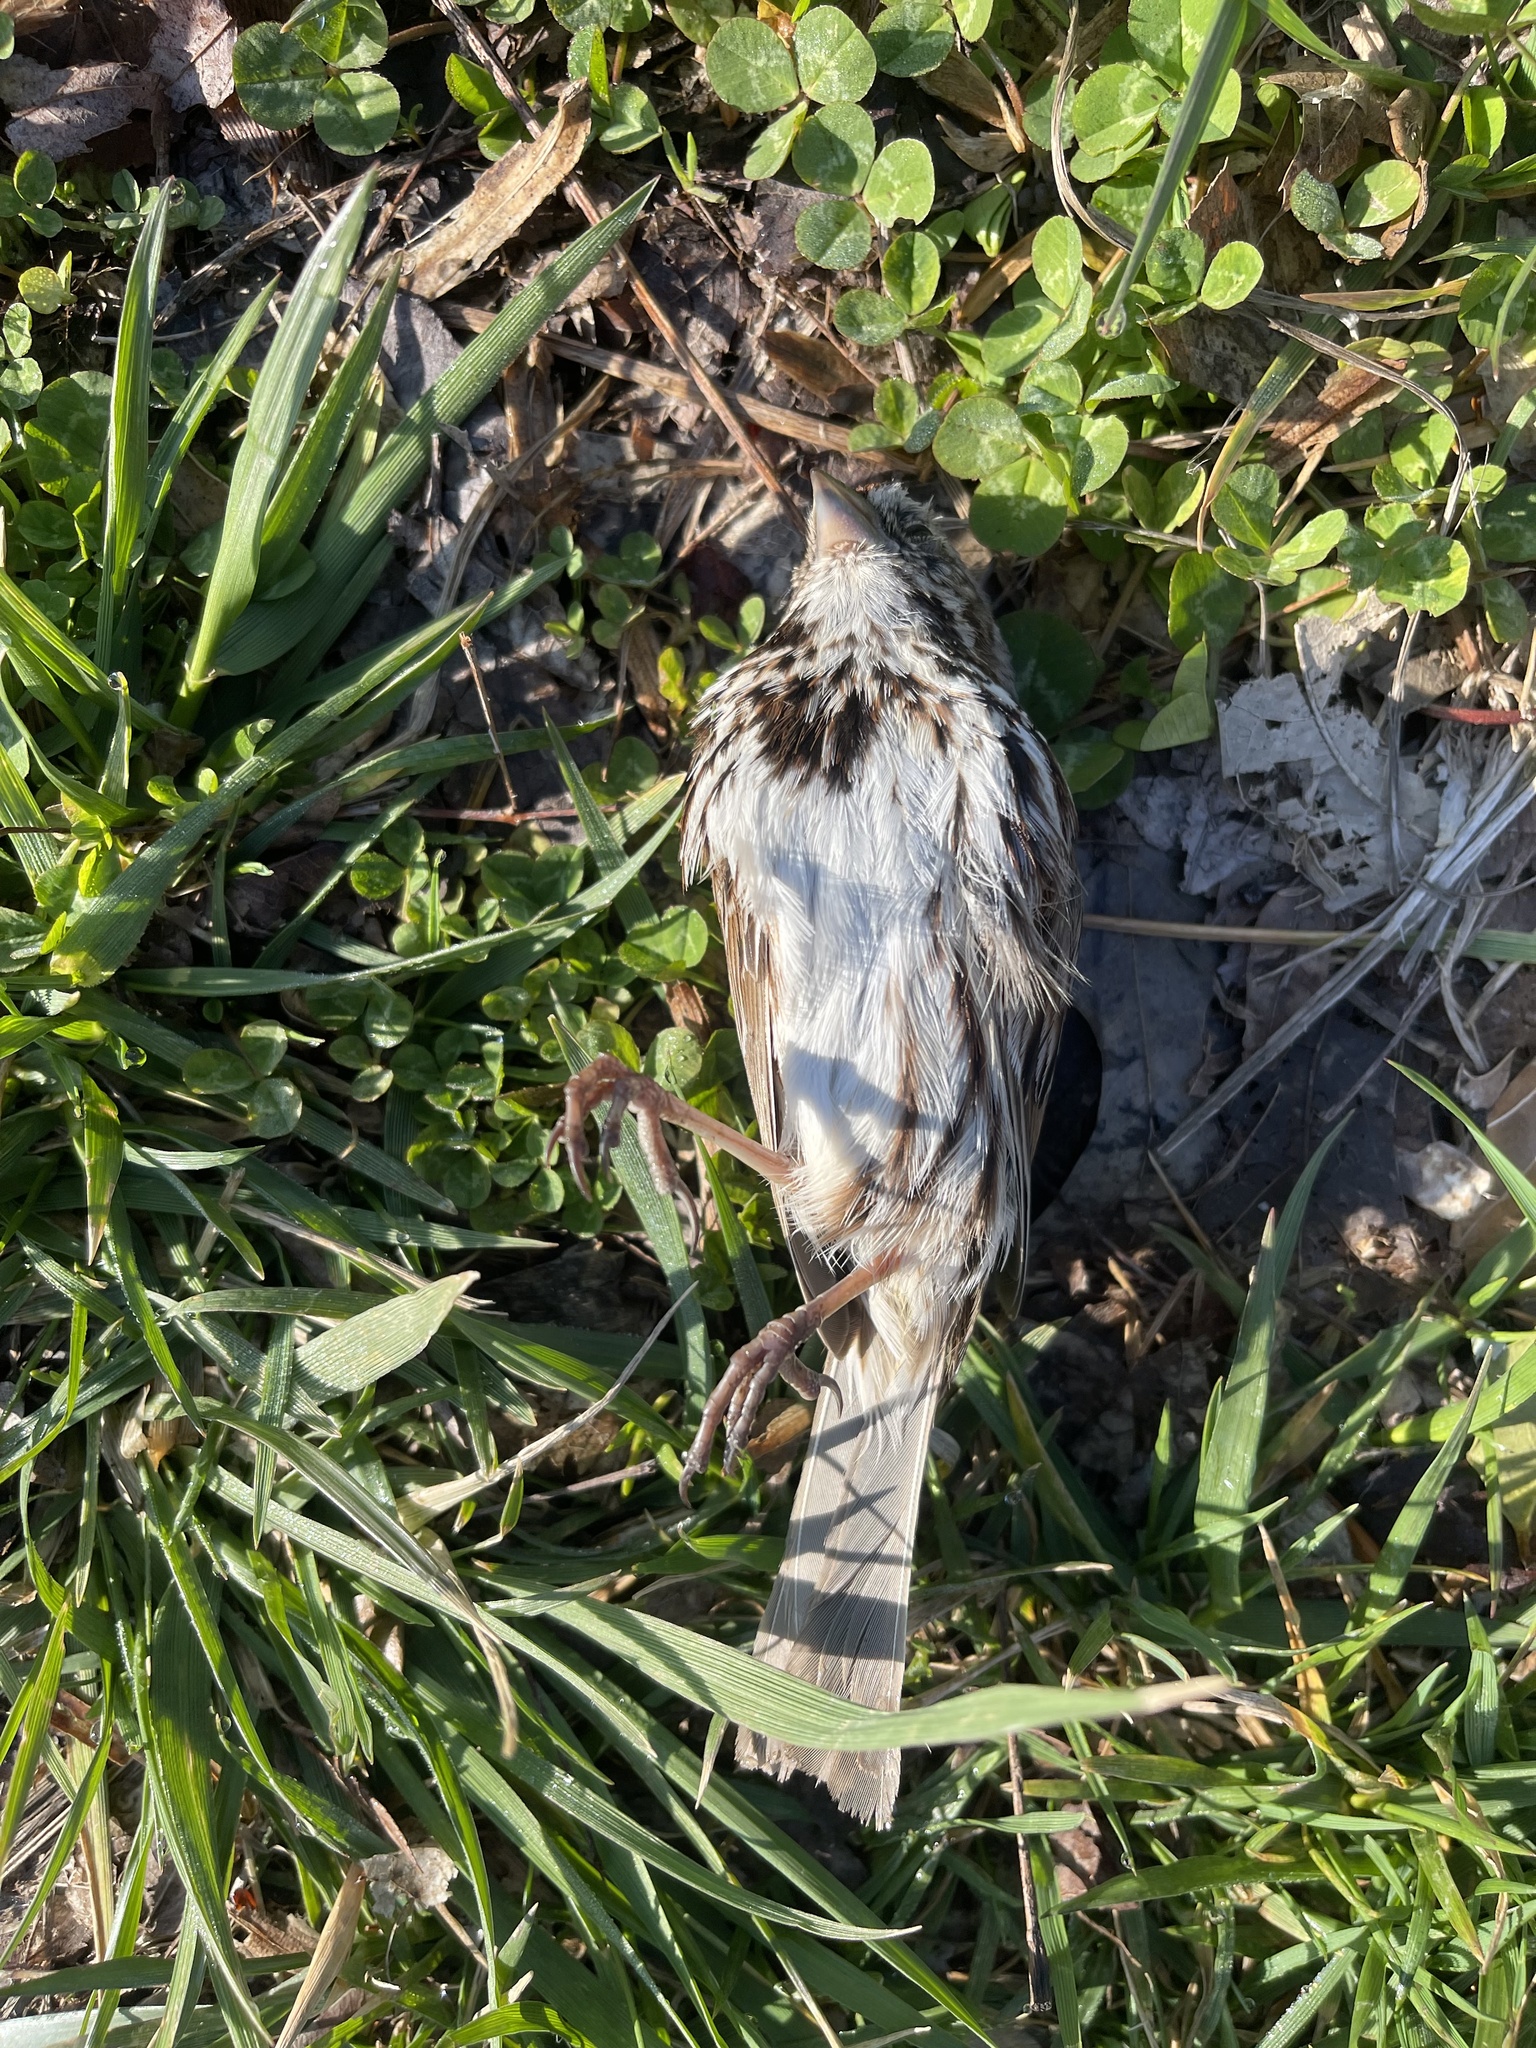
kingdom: Animalia
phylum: Chordata
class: Aves
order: Passeriformes
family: Passerellidae
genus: Melospiza
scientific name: Melospiza melodia
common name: Song sparrow
